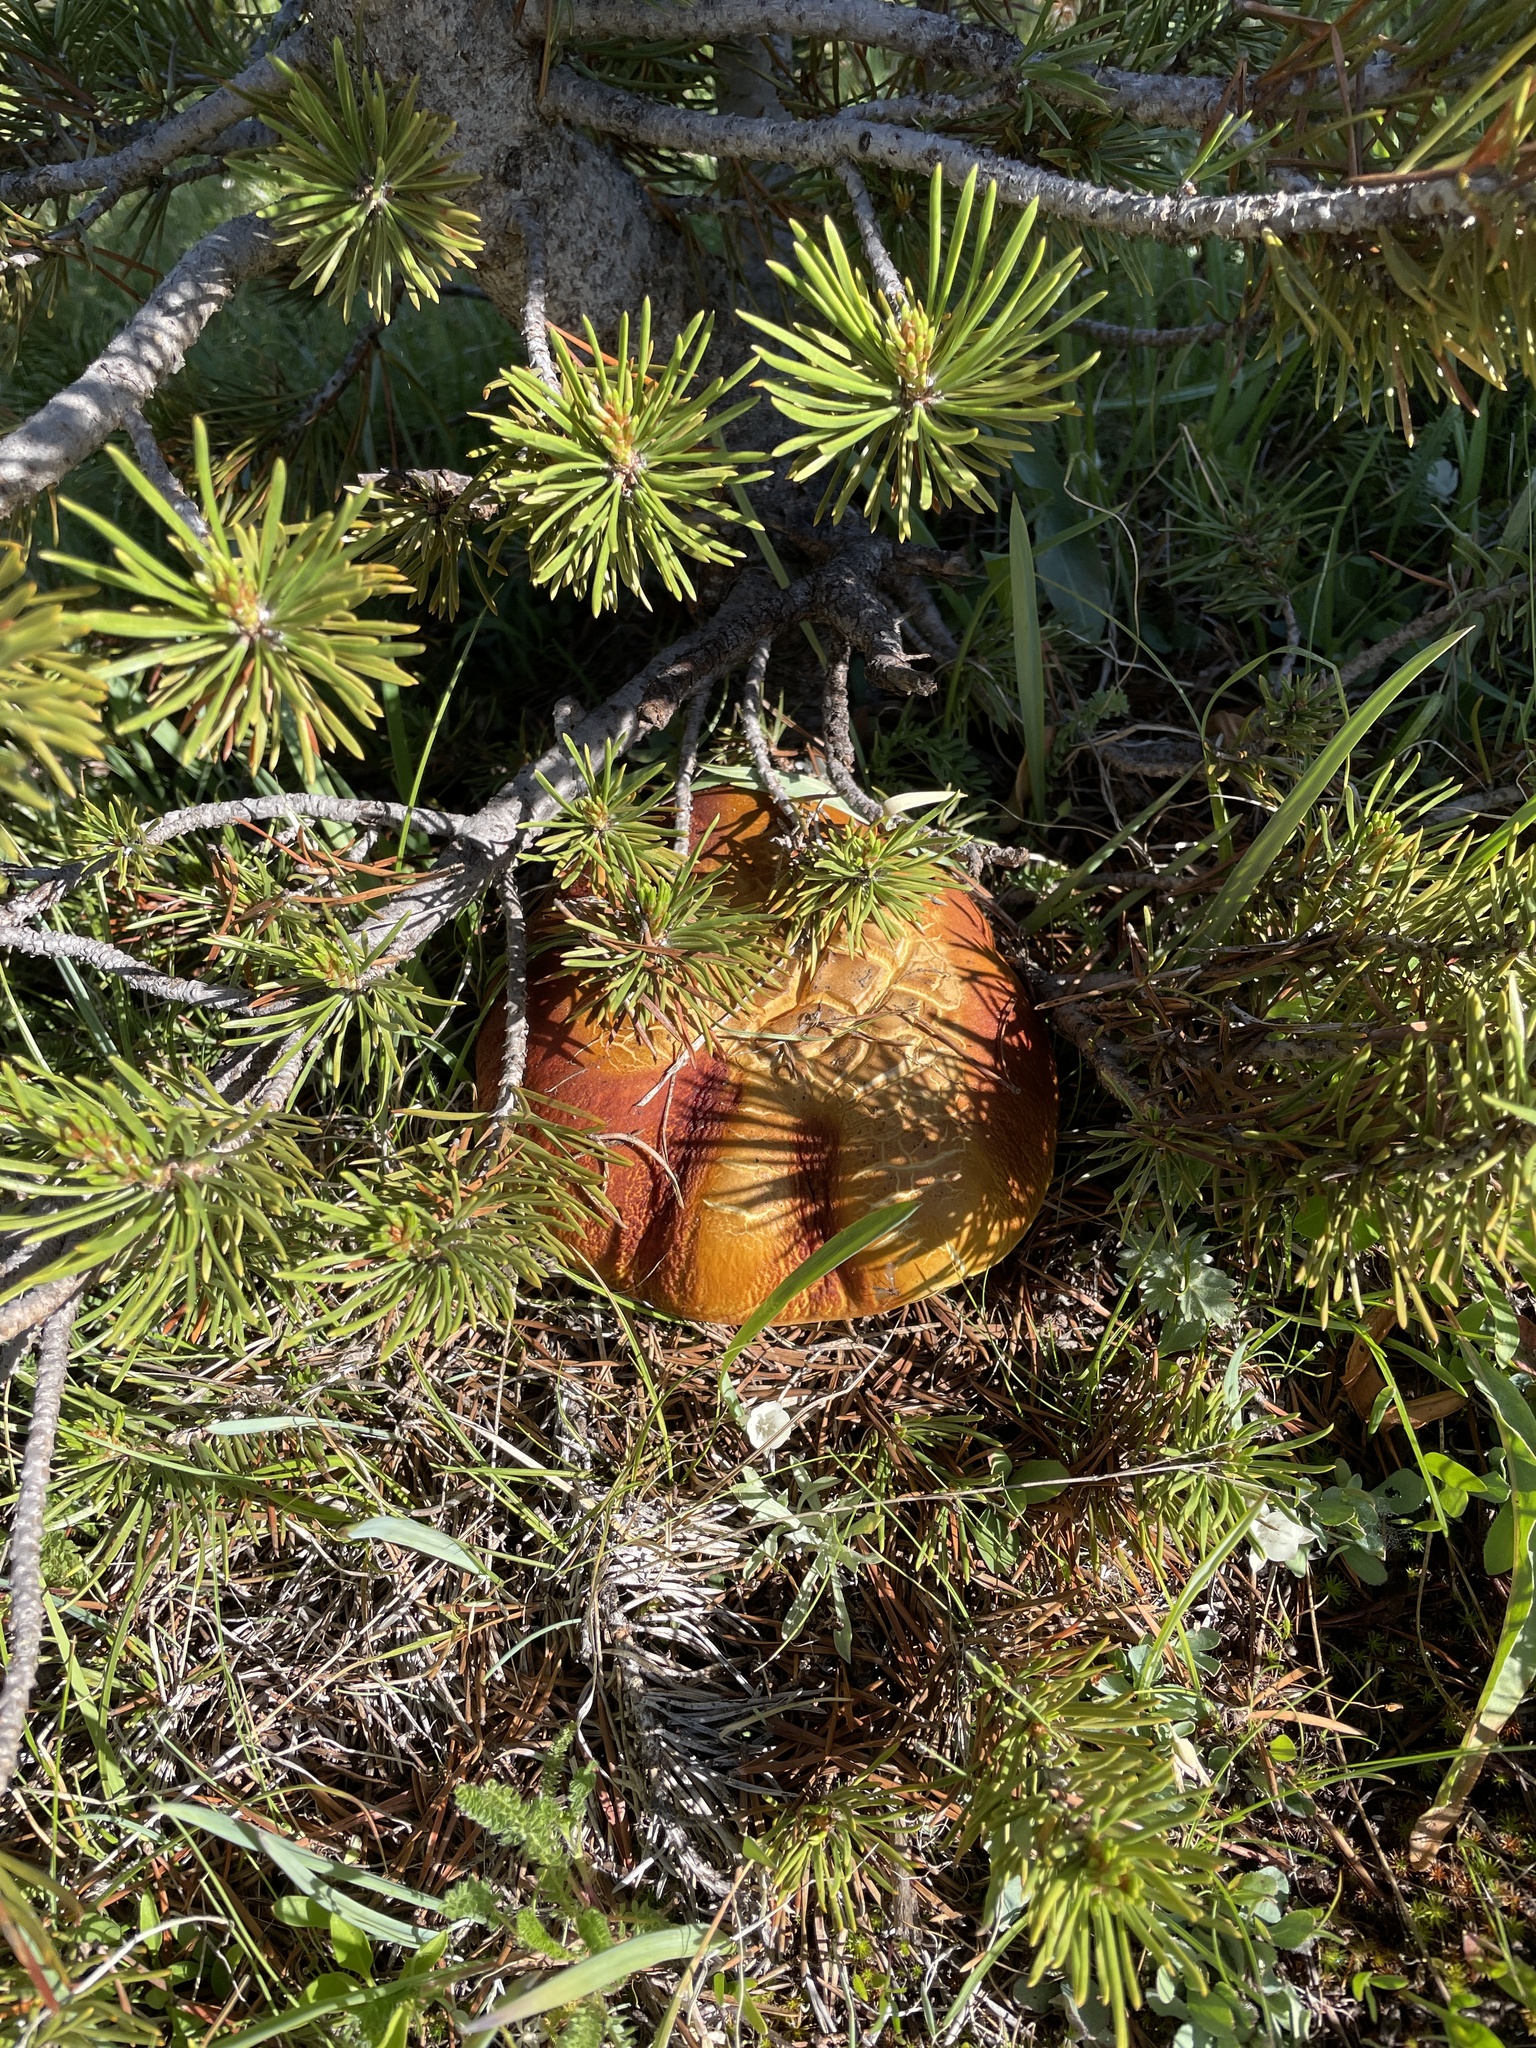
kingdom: Fungi
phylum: Basidiomycota
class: Agaricomycetes
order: Boletales
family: Boletaceae
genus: Boletus
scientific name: Boletus edulis
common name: Cep
